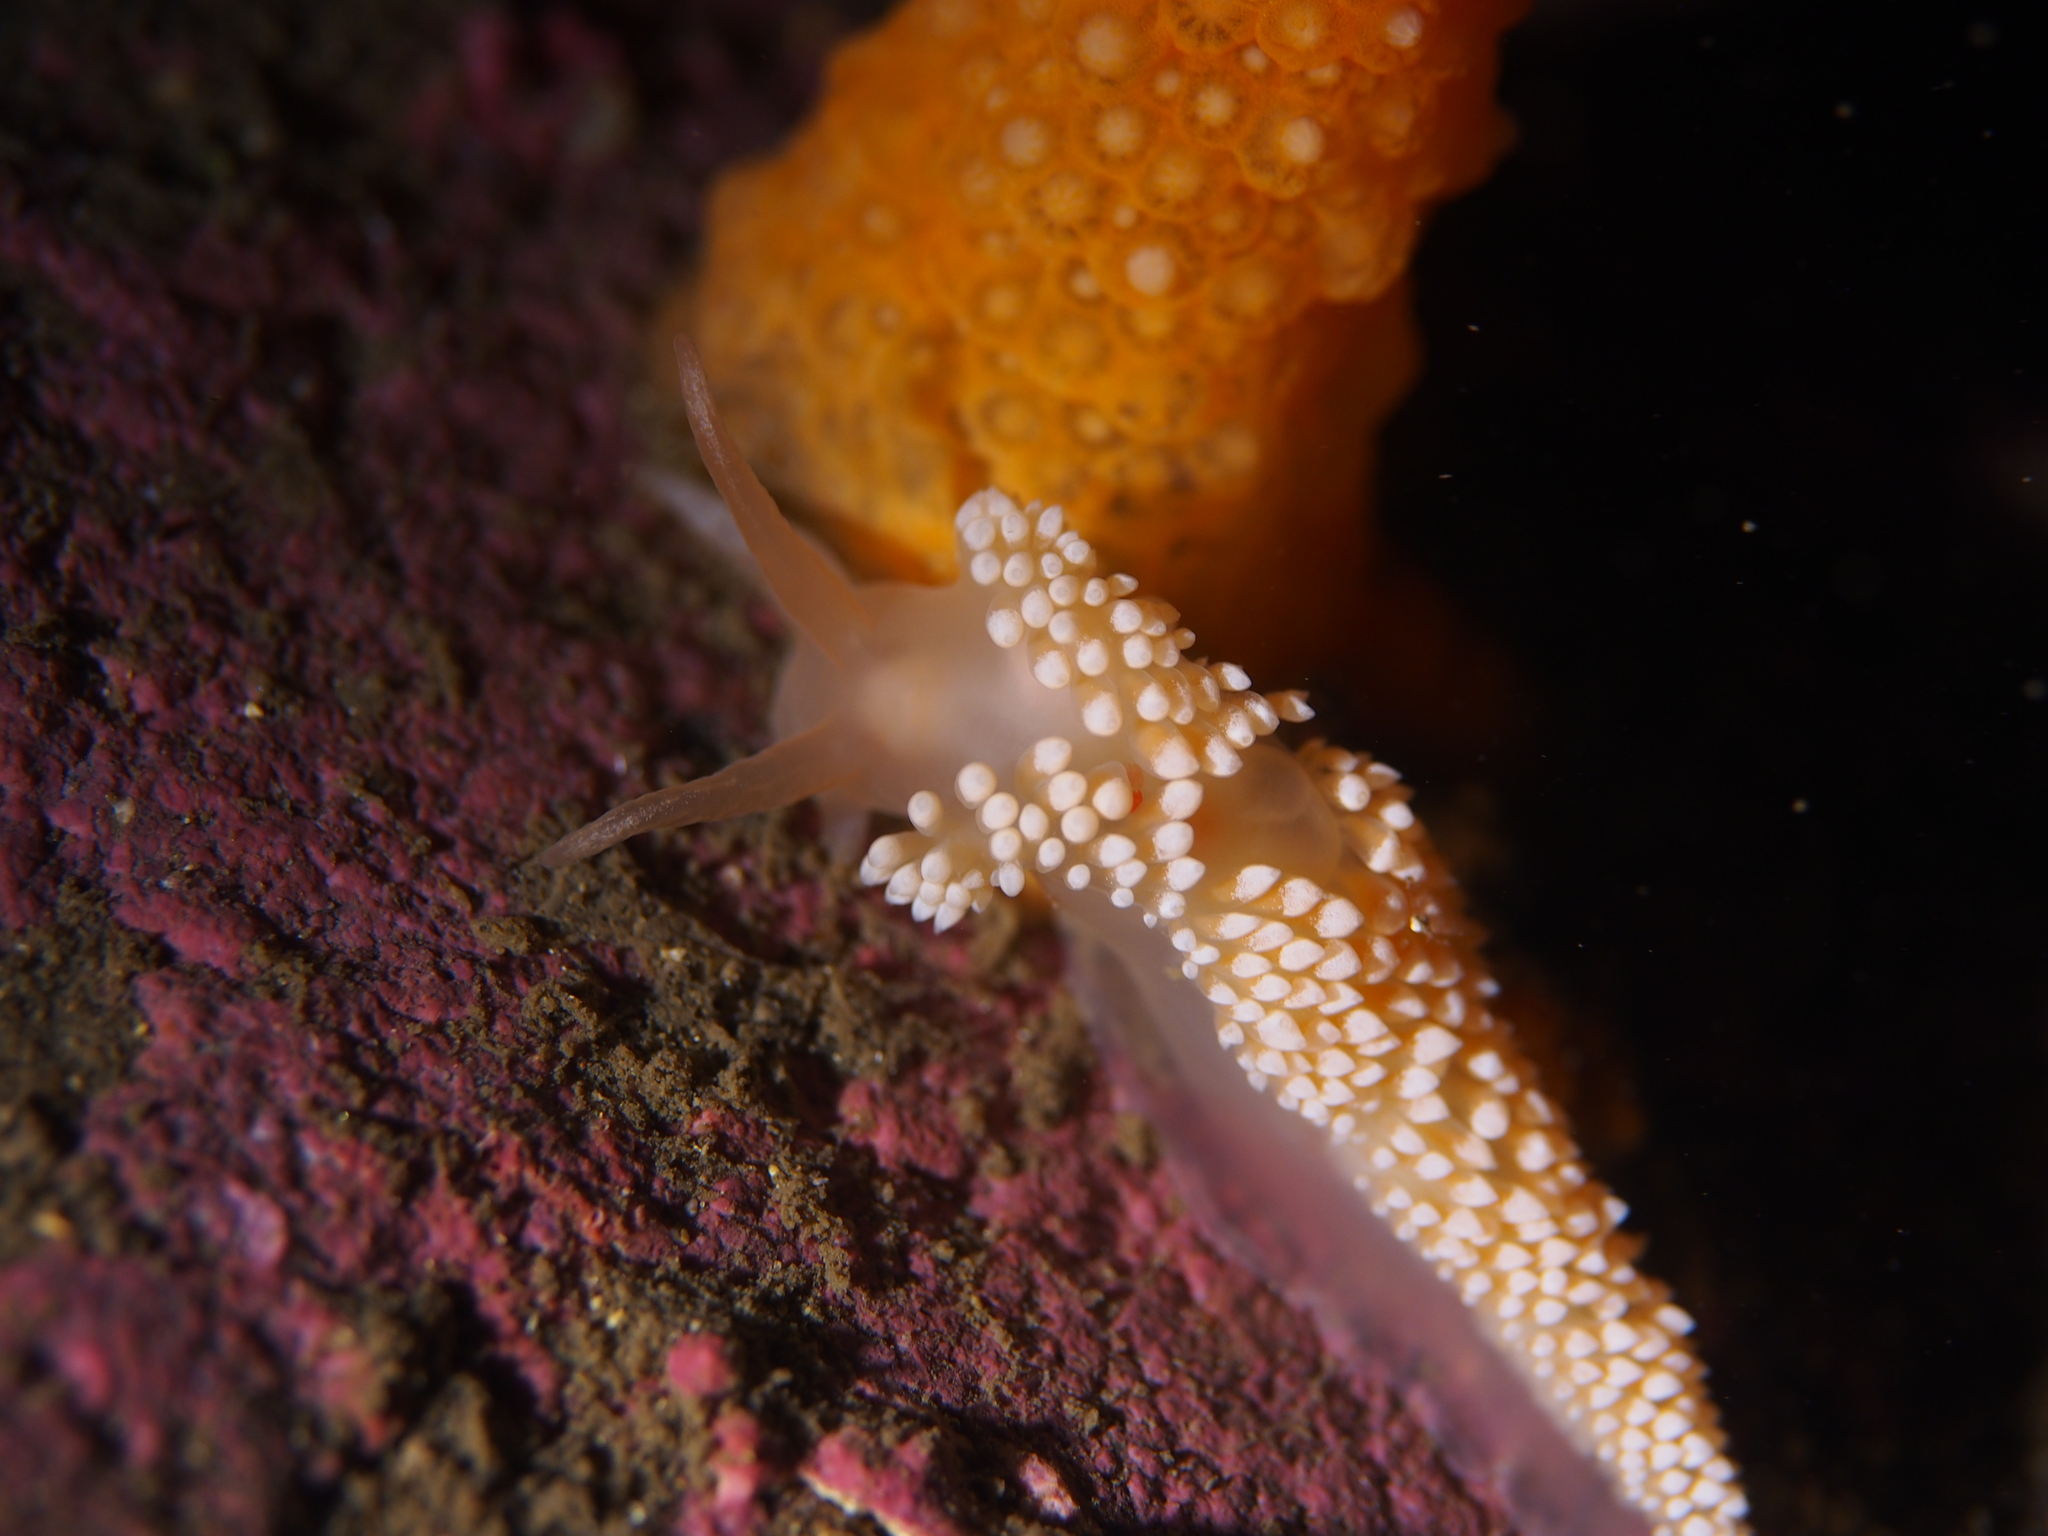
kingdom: Animalia
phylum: Mollusca
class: Gastropoda
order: Nudibranchia
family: Coryphellidae
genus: Coryphella
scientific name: Coryphella verrucosa
